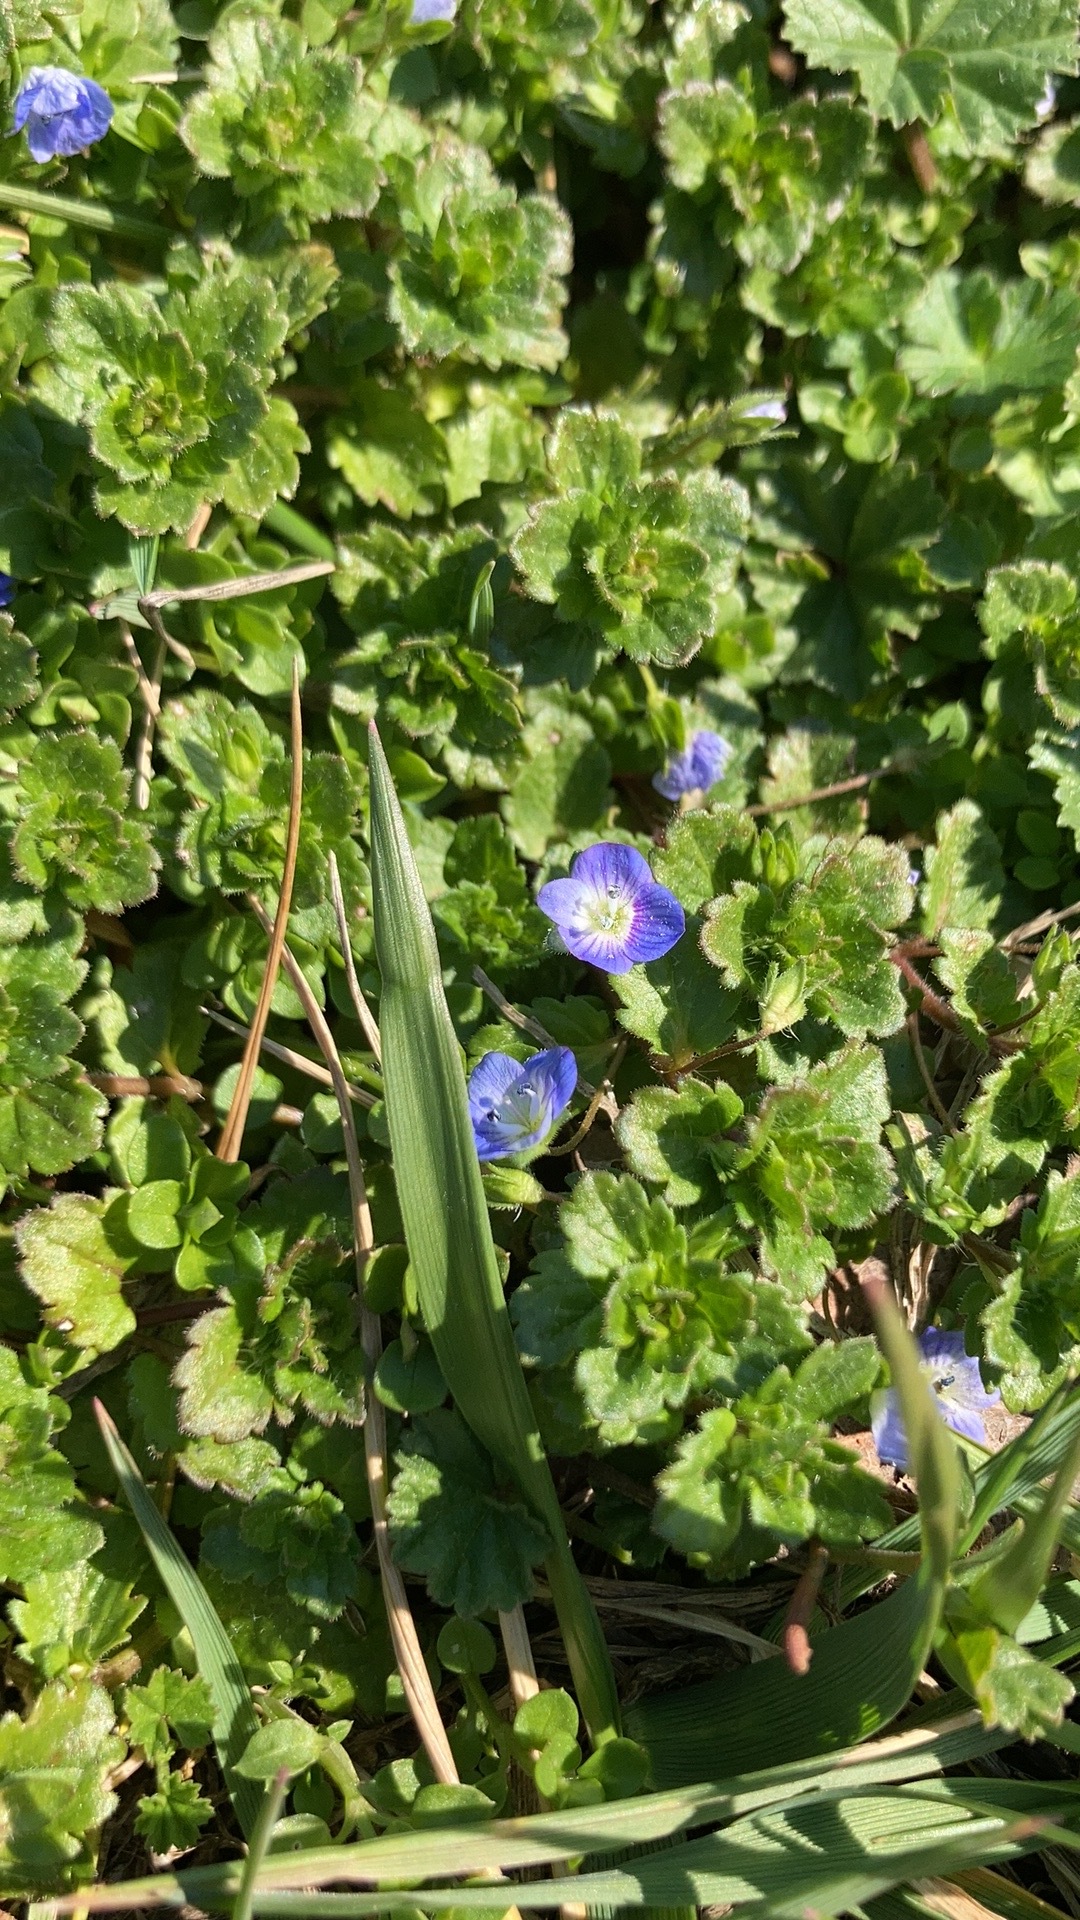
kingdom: Plantae
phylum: Tracheophyta
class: Magnoliopsida
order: Lamiales
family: Plantaginaceae
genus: Veronica
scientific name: Veronica persica
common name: Common field-speedwell
